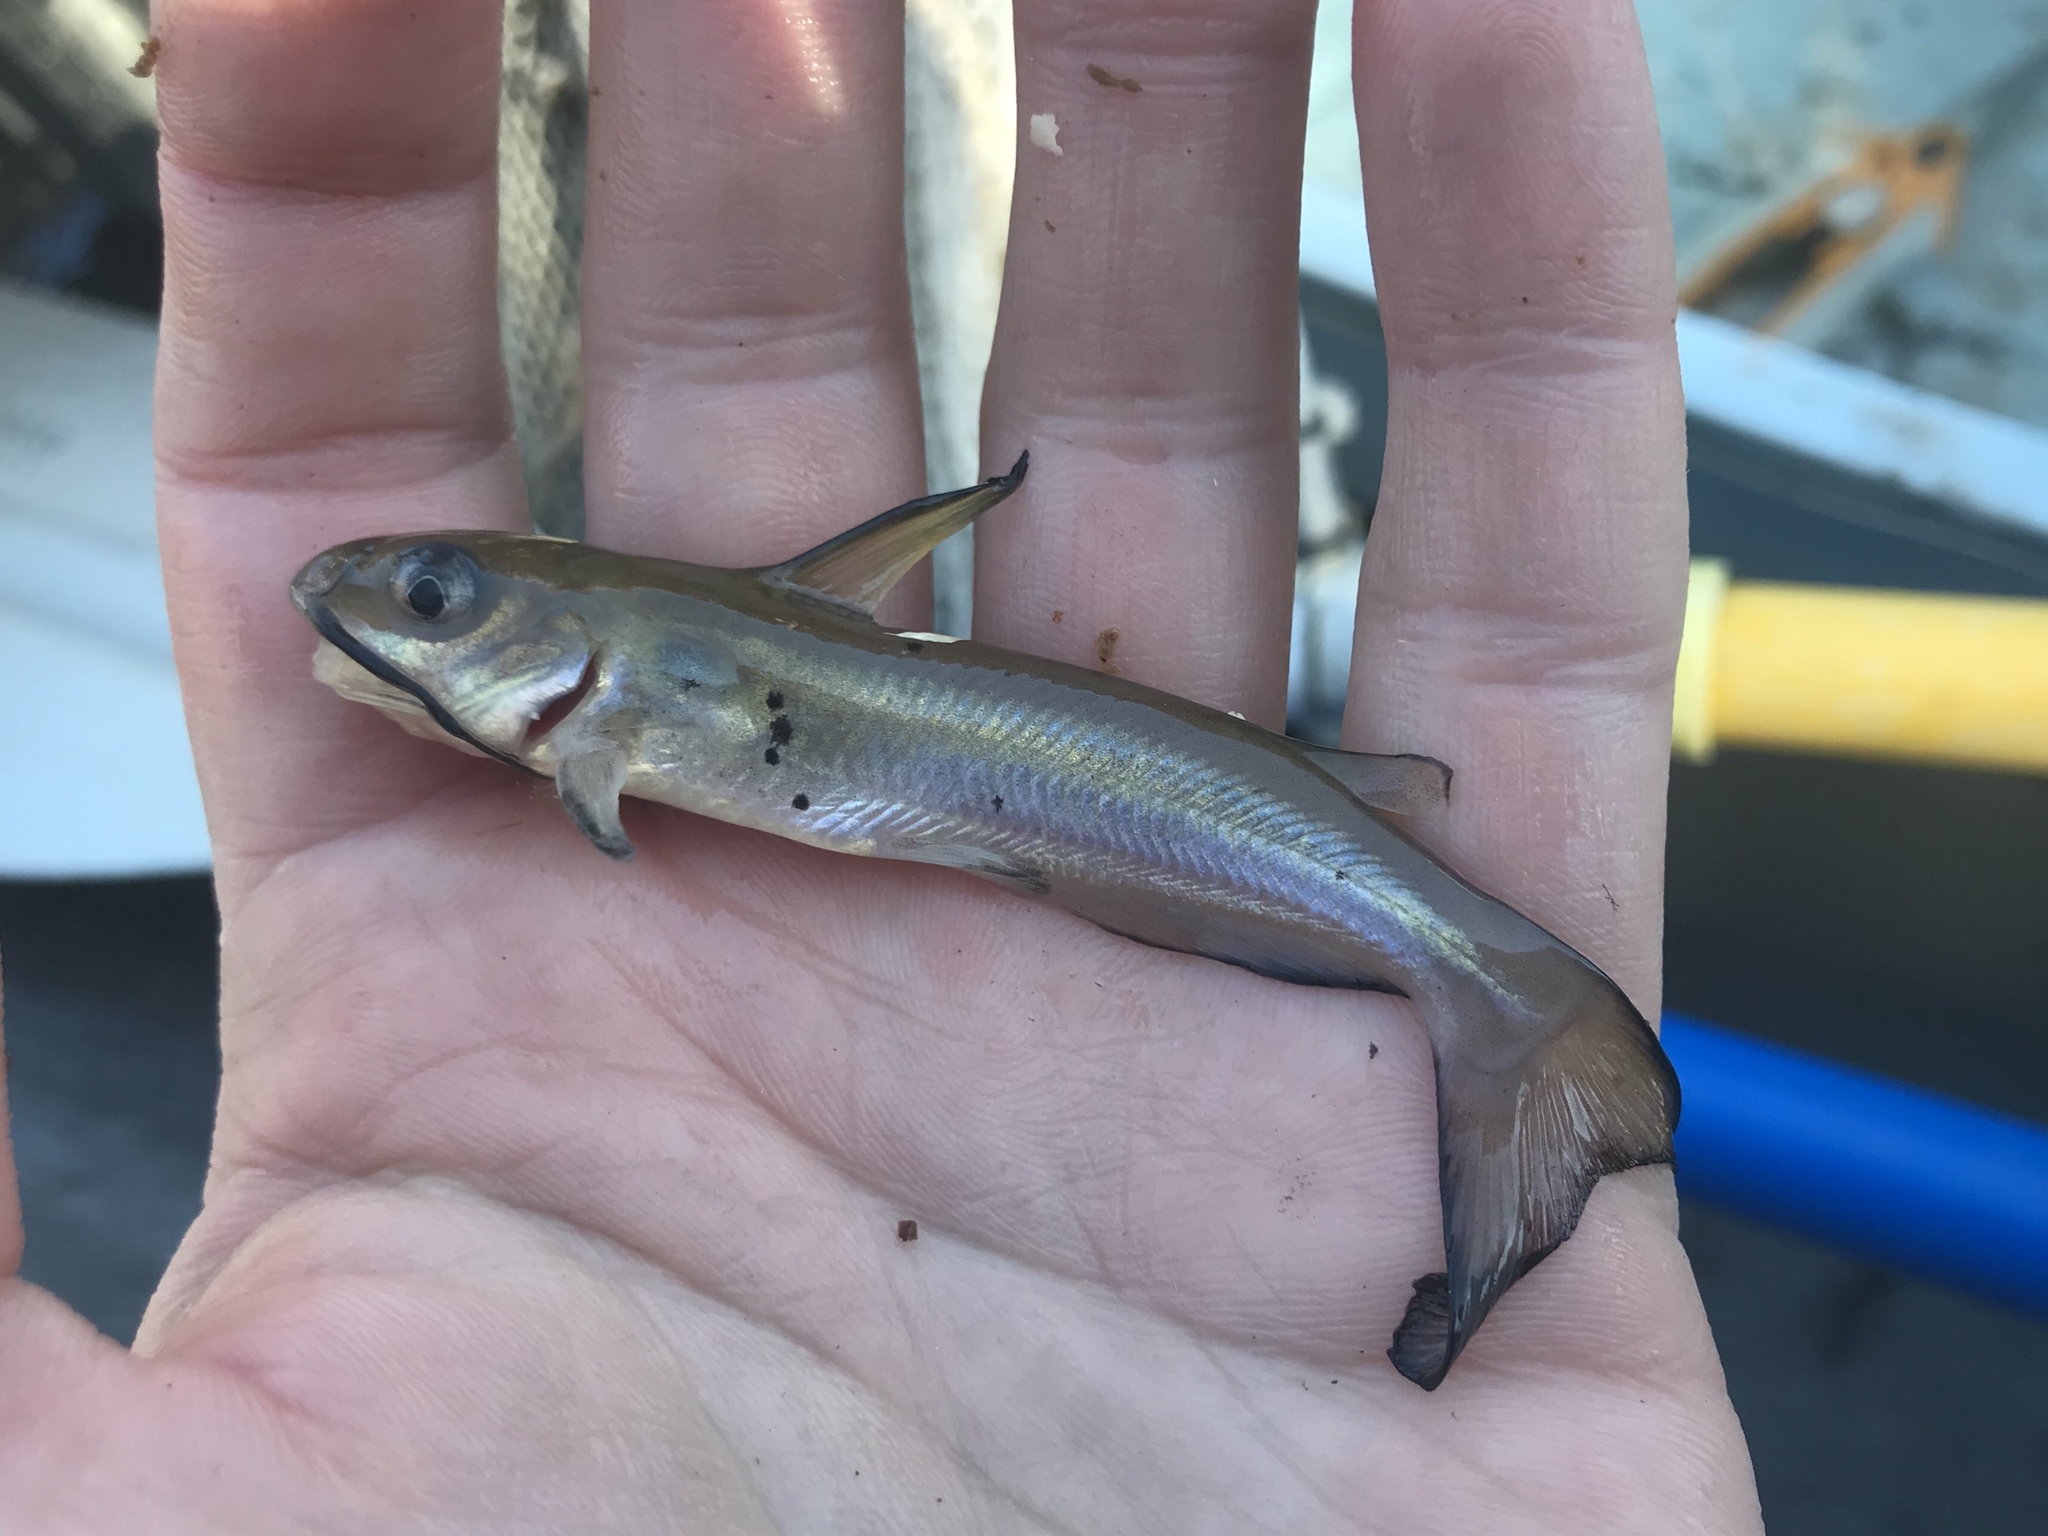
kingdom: Animalia
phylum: Chordata
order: Siluriformes
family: Ictaluridae
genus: Ictalurus
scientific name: Ictalurus punctatus
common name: Channel catfish
